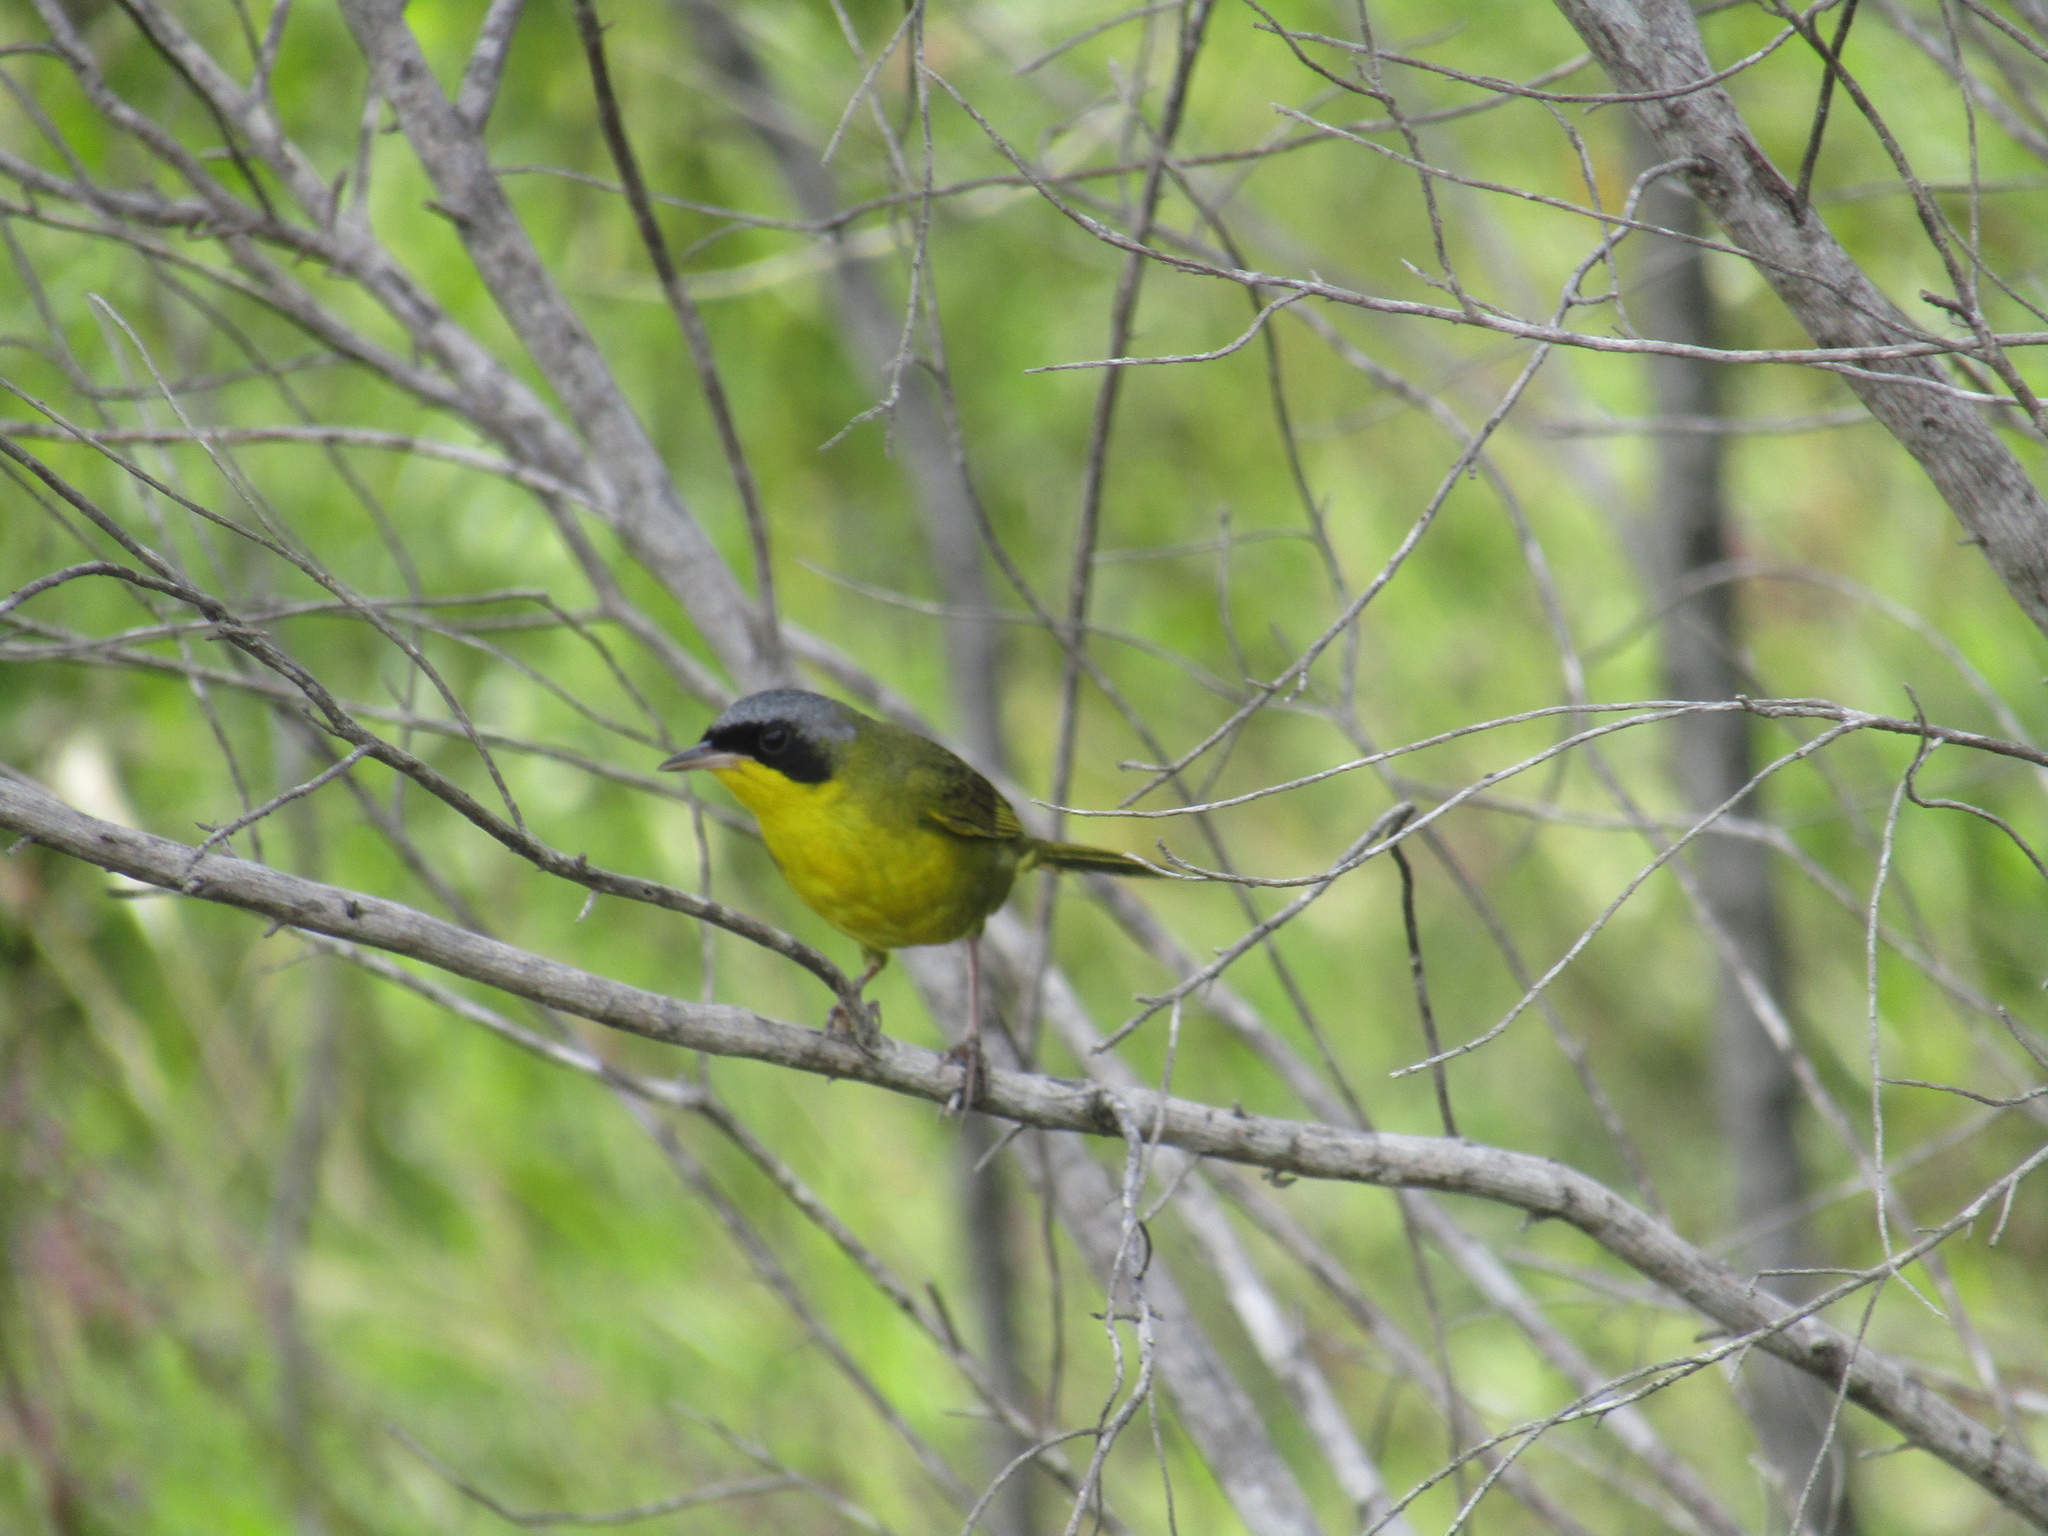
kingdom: Animalia
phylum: Chordata
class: Aves
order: Passeriformes
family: Parulidae
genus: Geothlypis
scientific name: Geothlypis velata
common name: Southern yellowthroat
